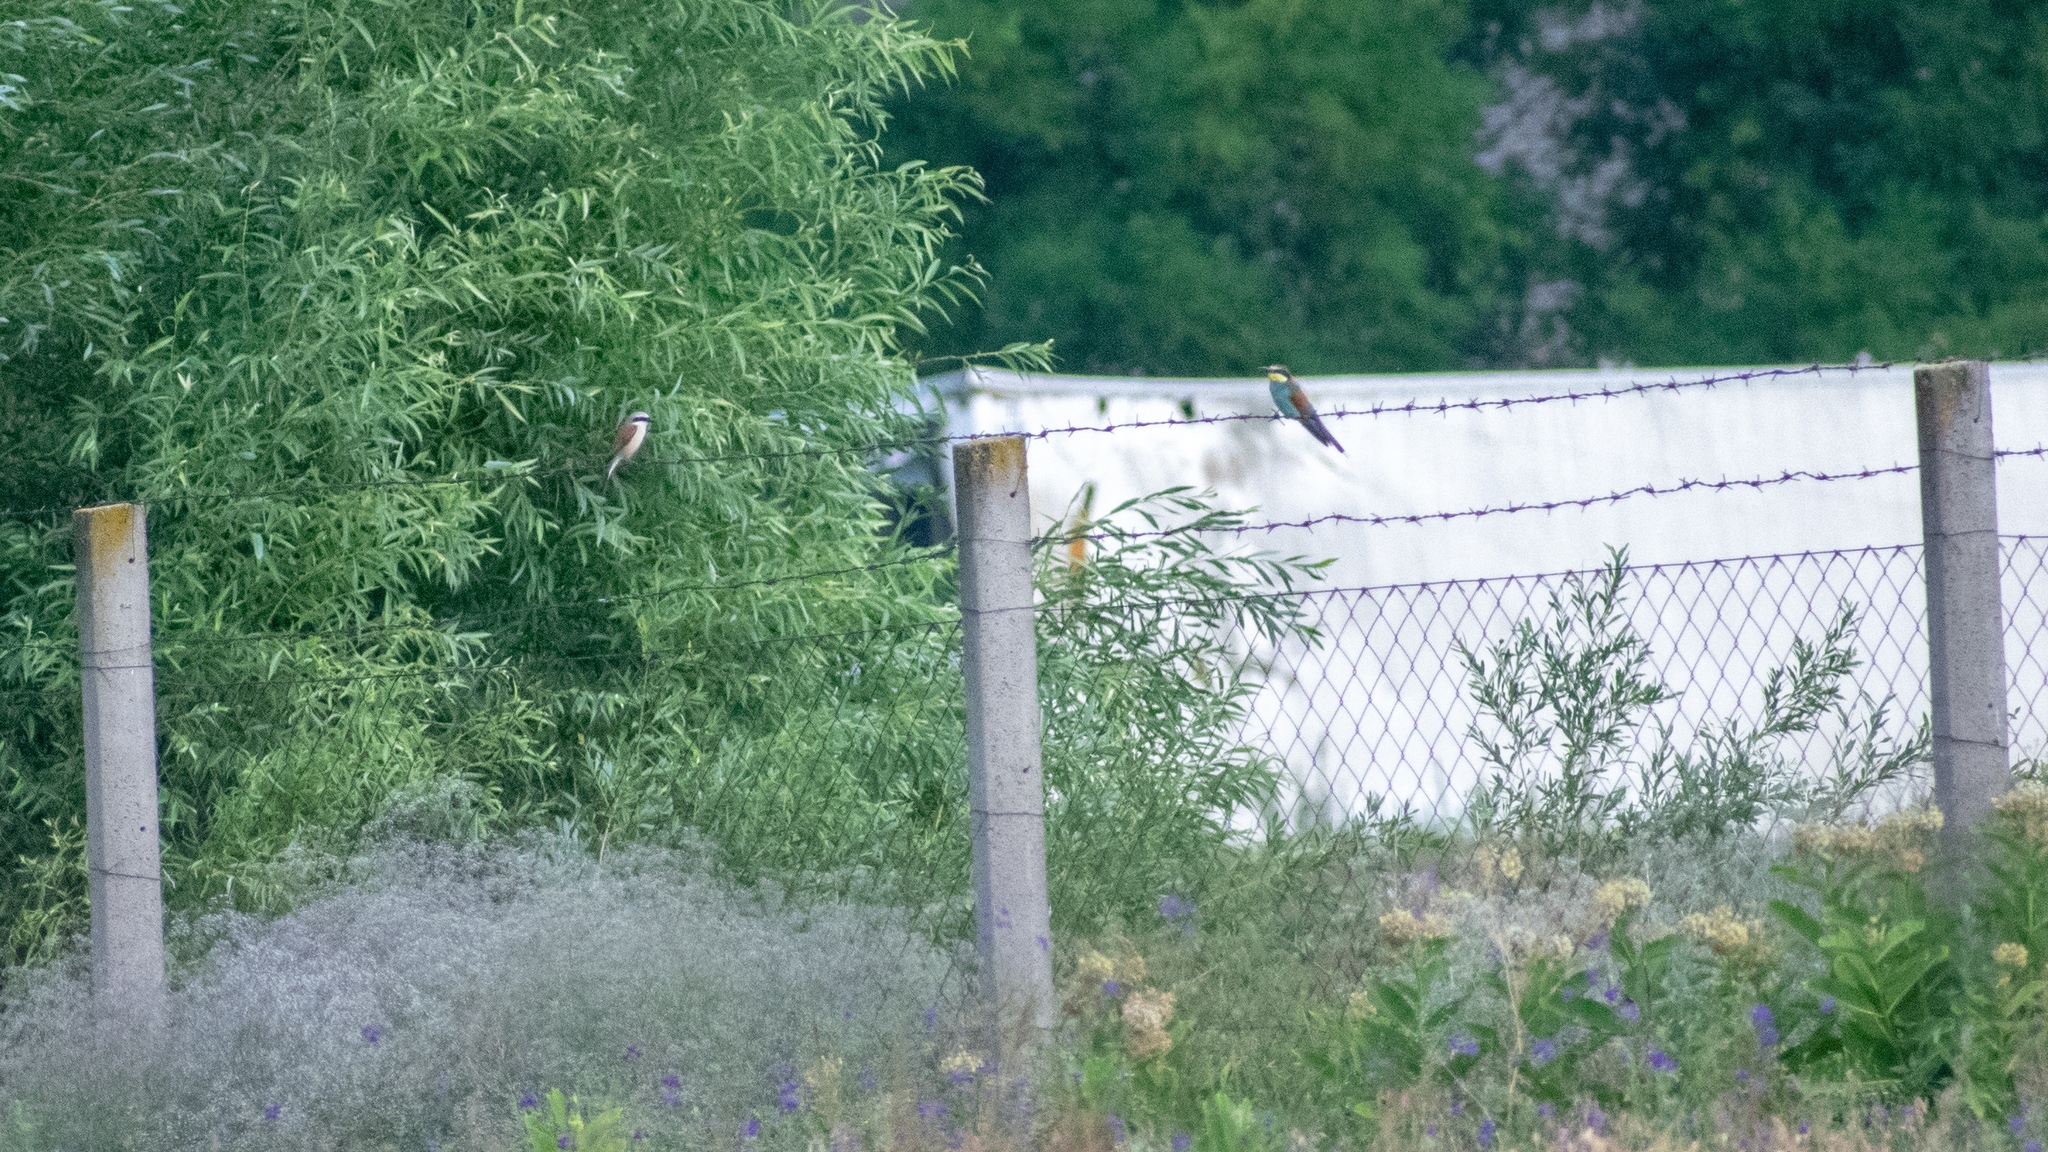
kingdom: Animalia
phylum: Chordata
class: Aves
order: Passeriformes
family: Laniidae
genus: Lanius
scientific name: Lanius collurio
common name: Red-backed shrike
